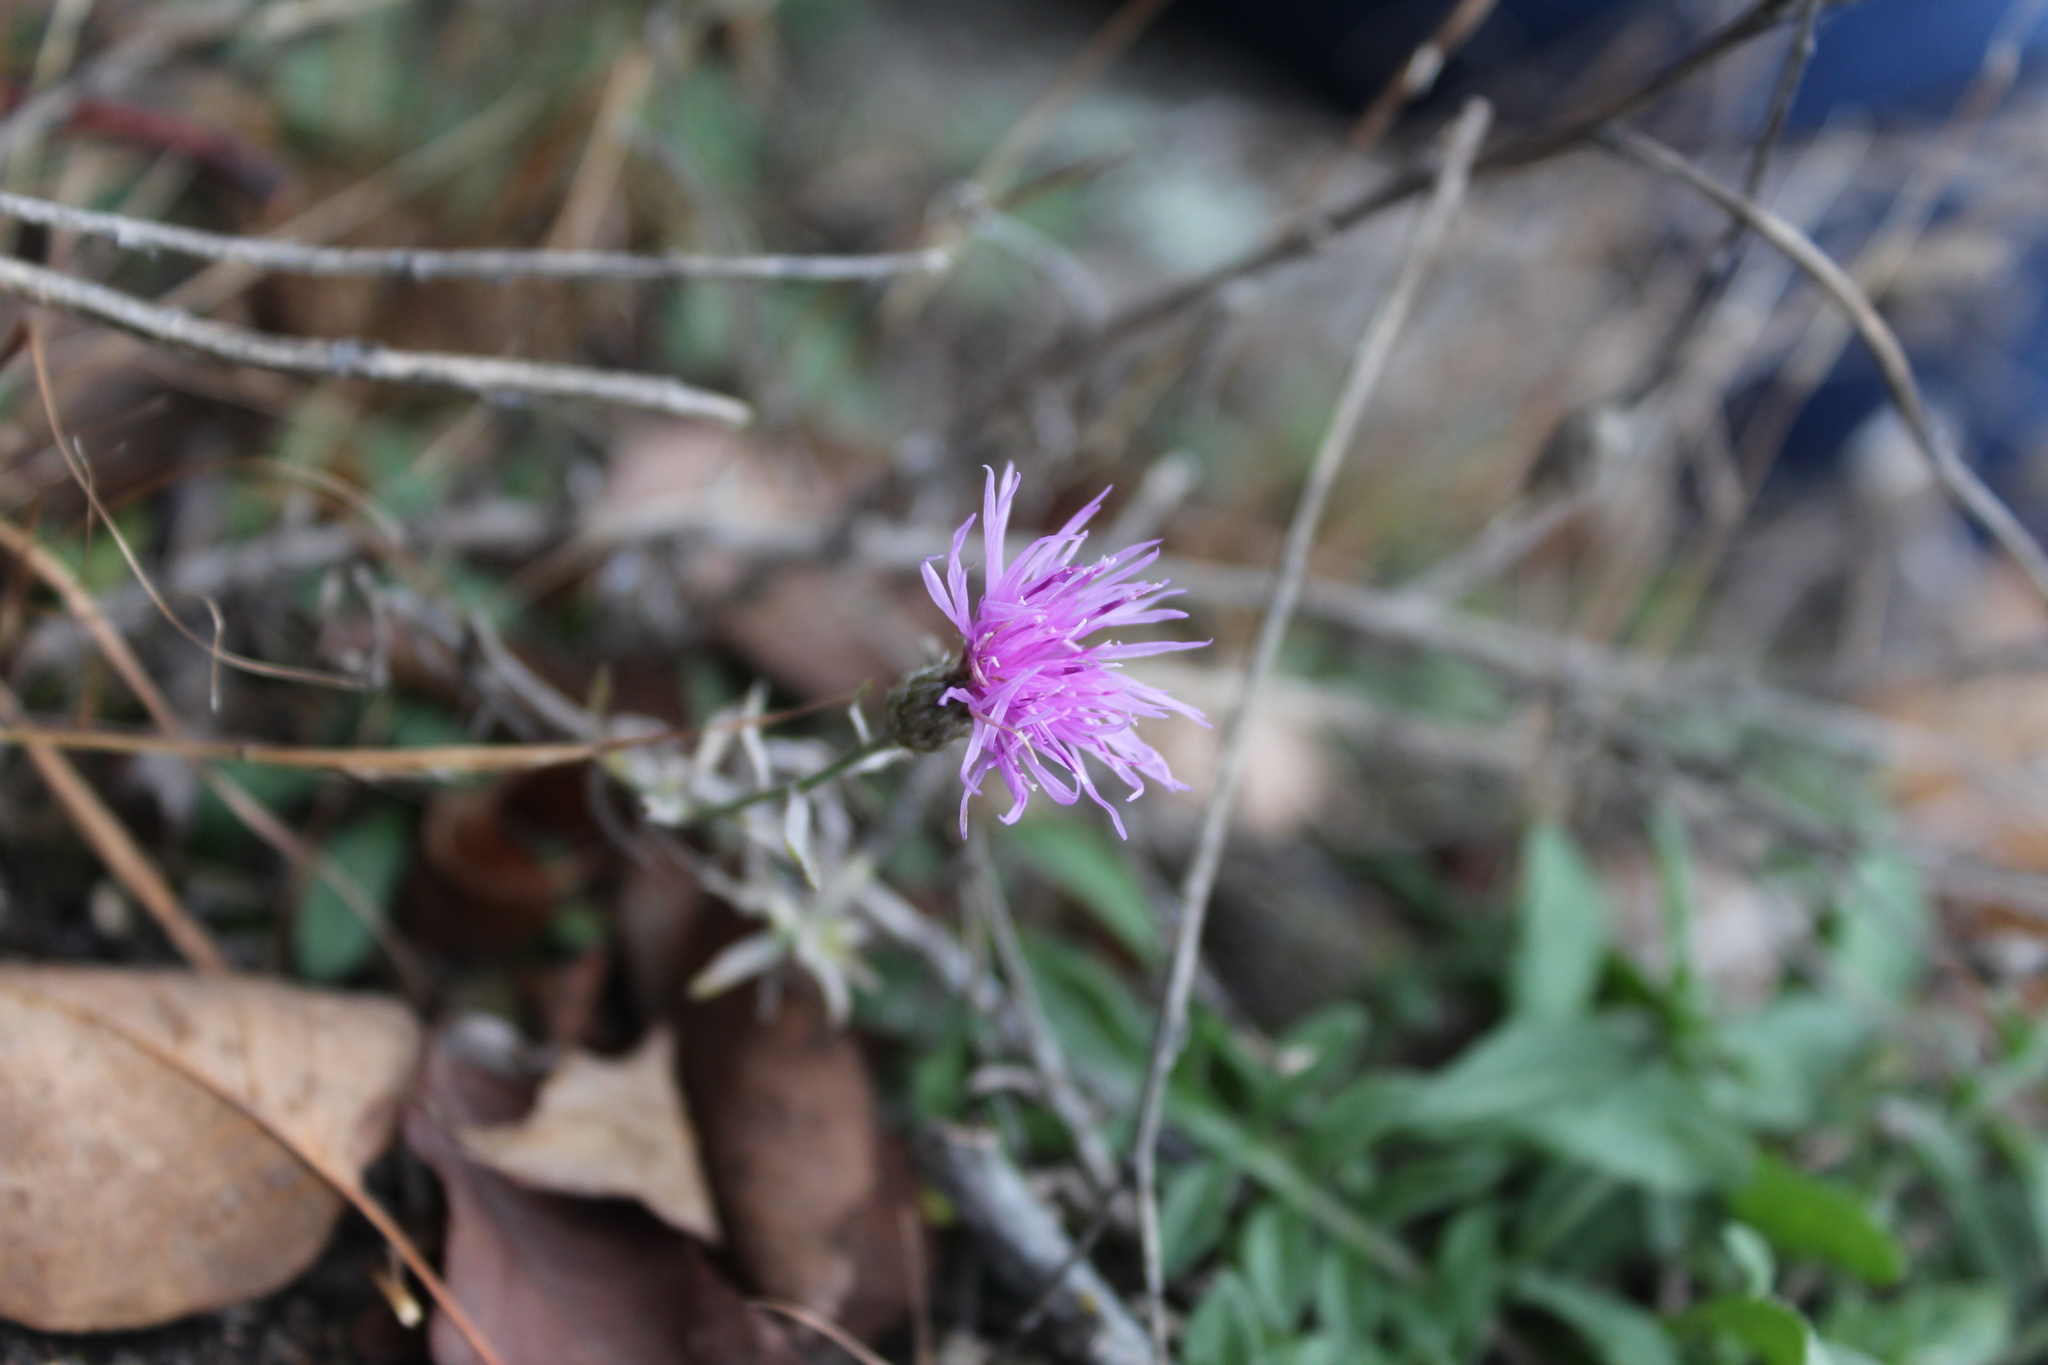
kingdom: Plantae
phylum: Tracheophyta
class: Magnoliopsida
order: Asterales
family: Asteraceae
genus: Centaurea
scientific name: Centaurea nigrescens
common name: Tyrol knapweed
